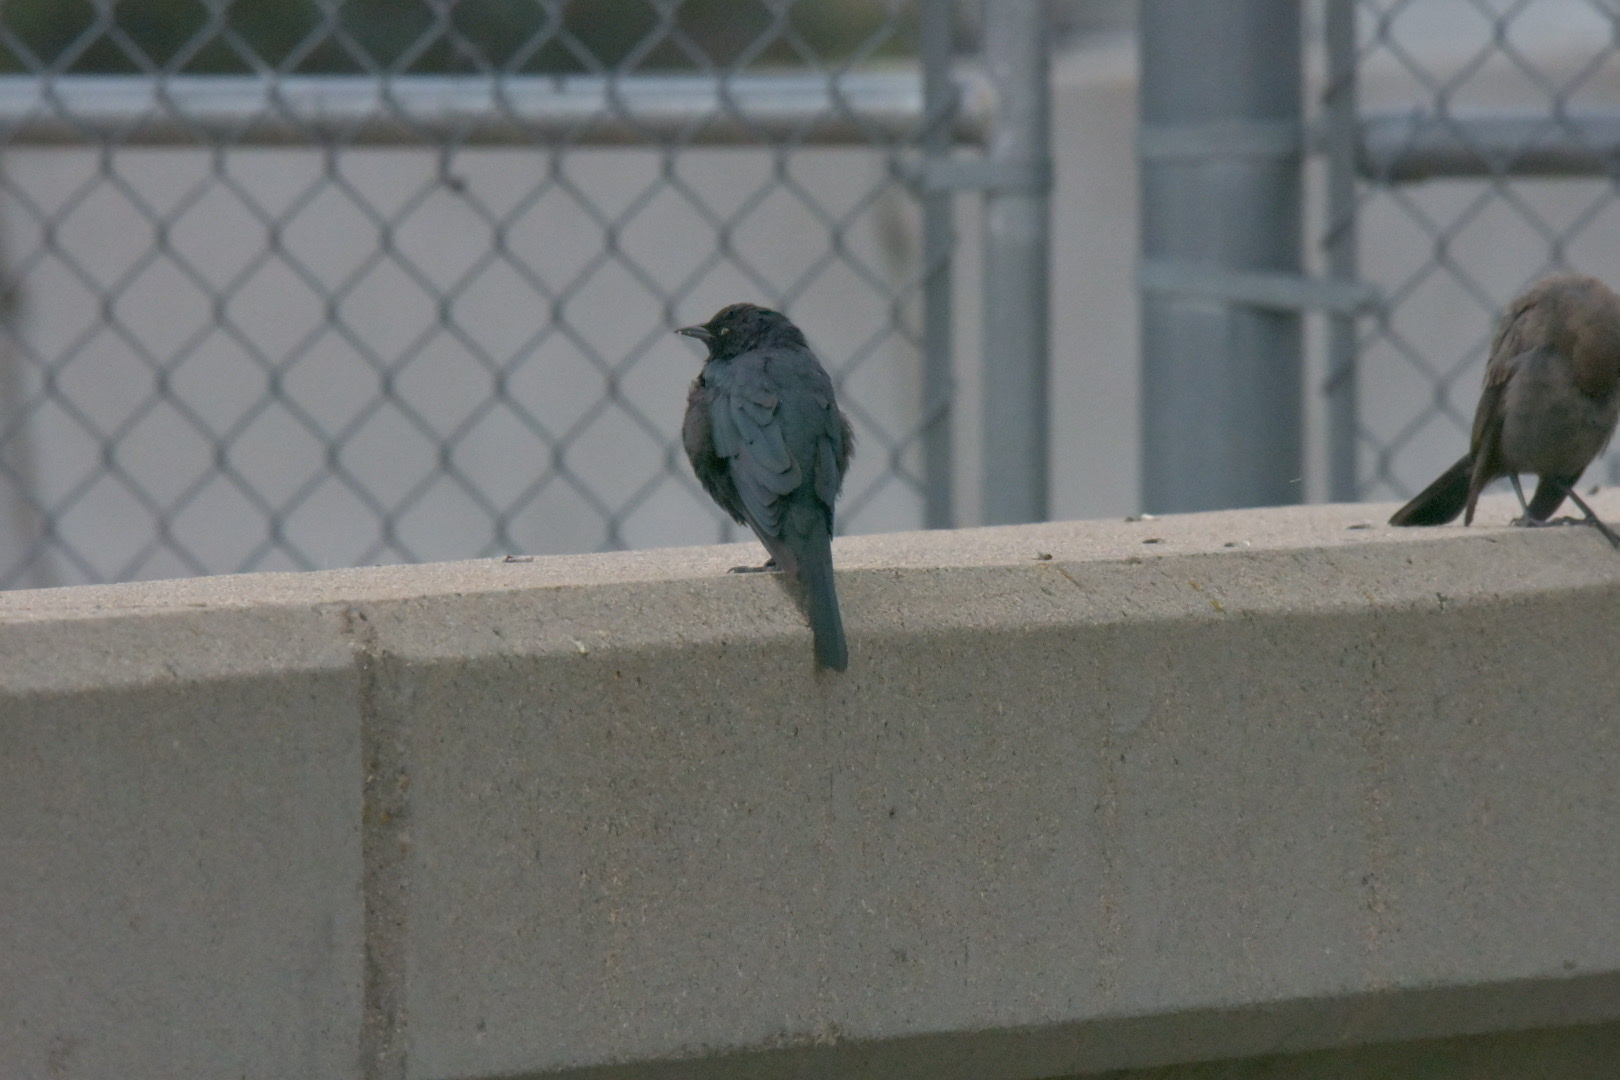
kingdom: Animalia
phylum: Chordata
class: Aves
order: Passeriformes
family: Icteridae
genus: Euphagus
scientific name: Euphagus cyanocephalus
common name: Brewer's blackbird
